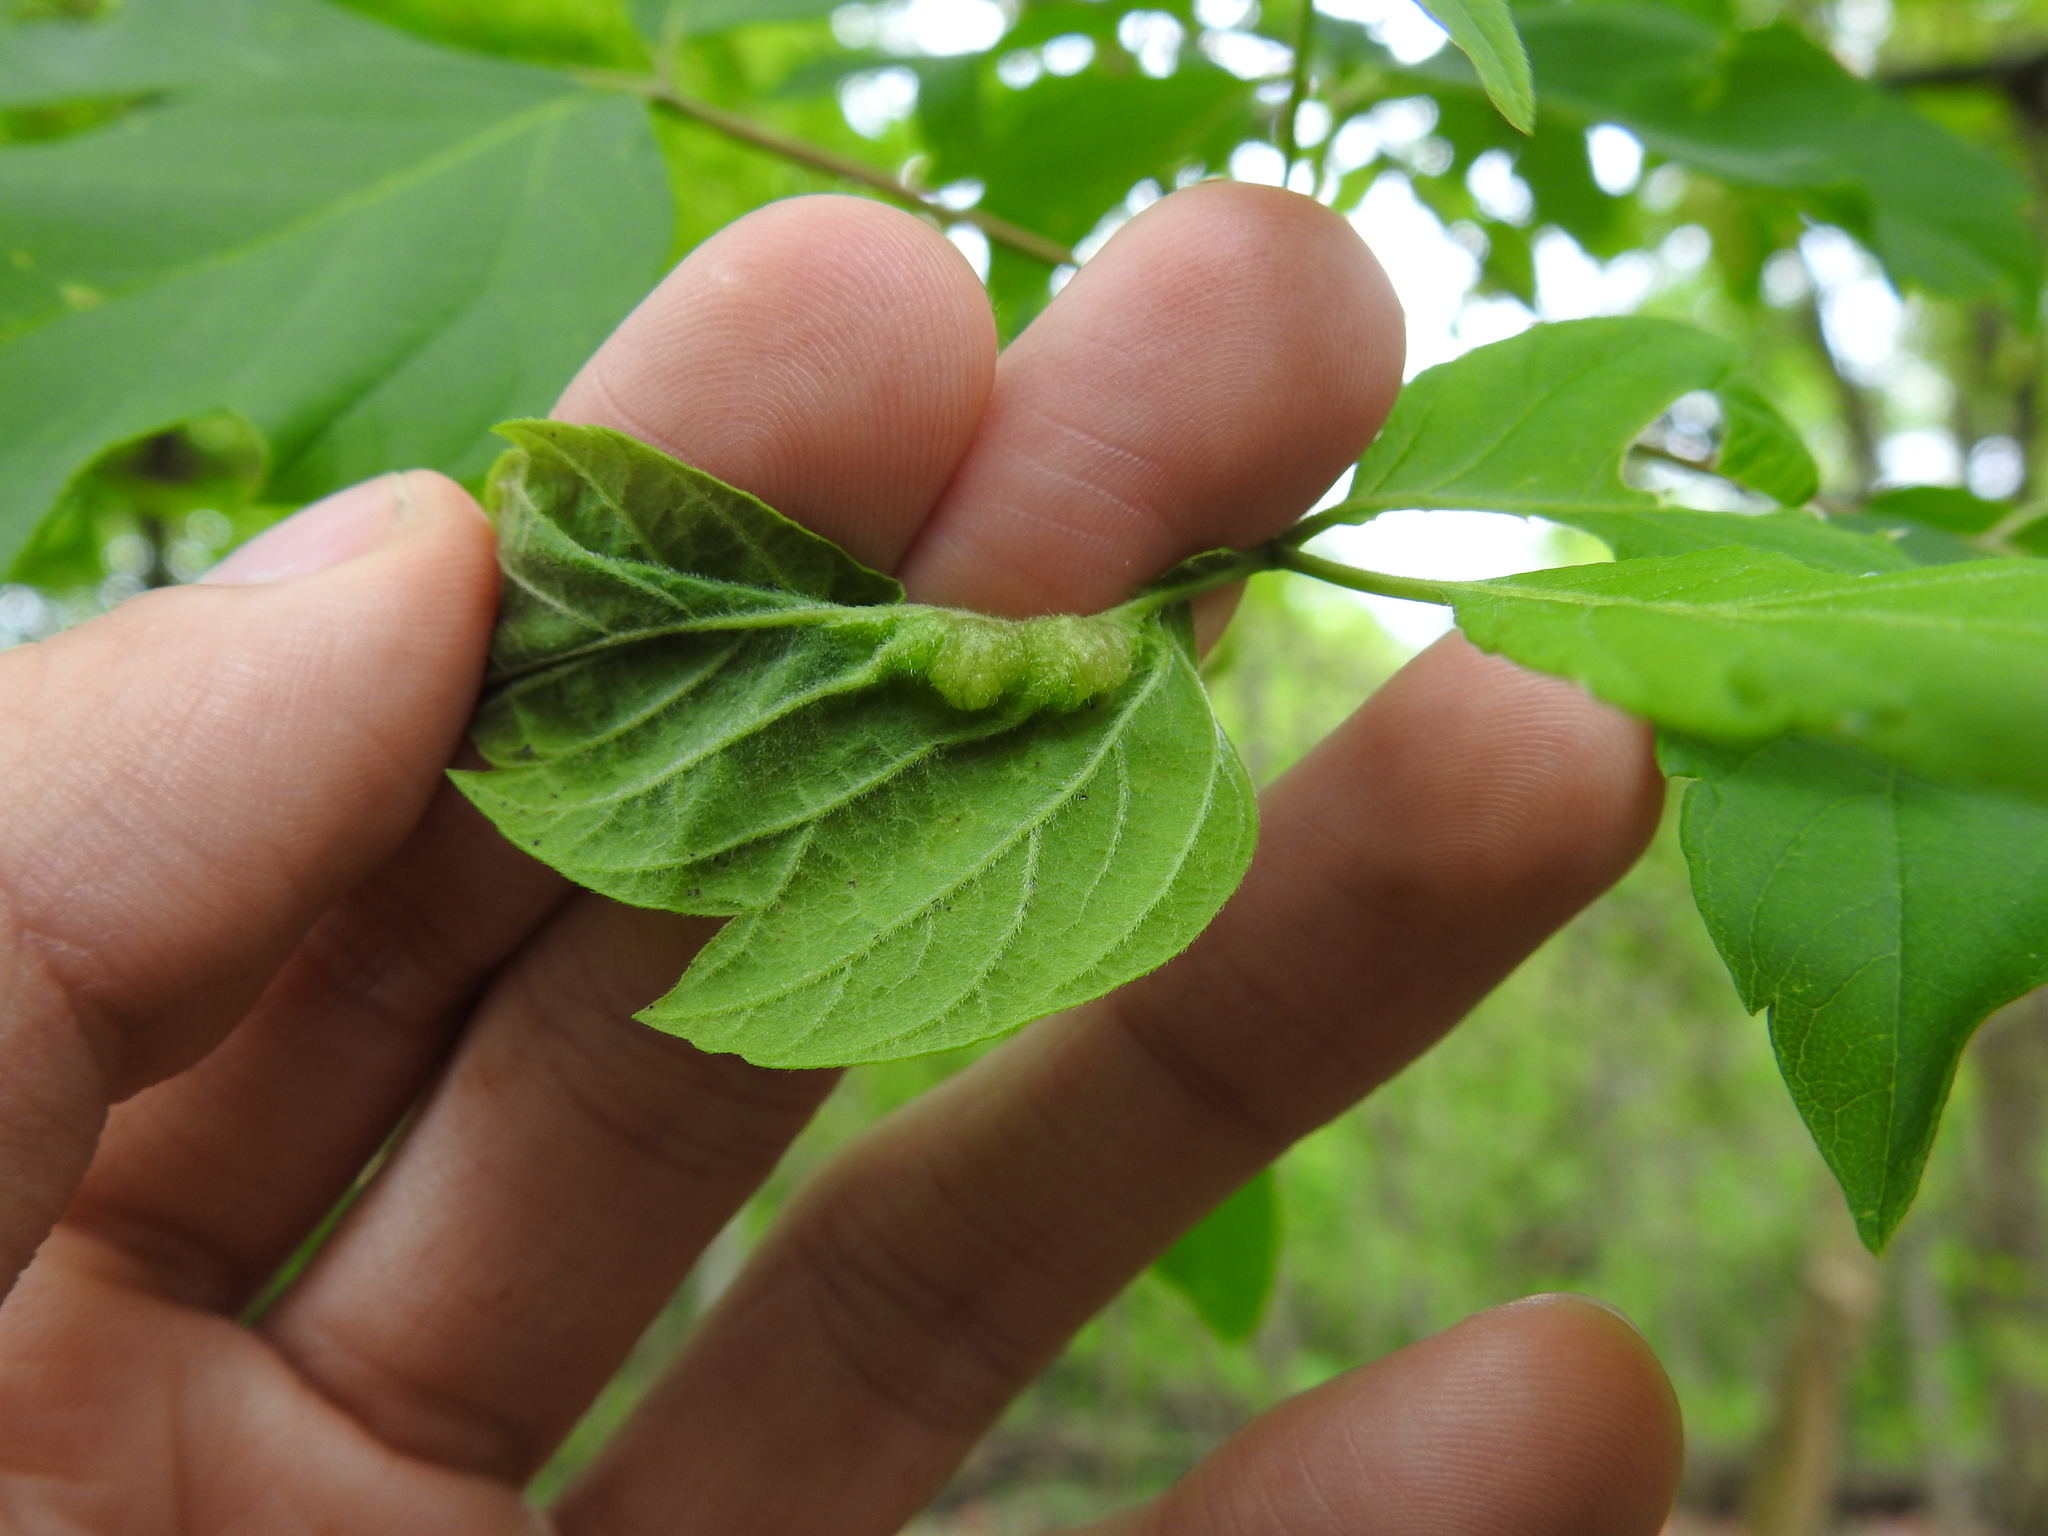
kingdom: Animalia
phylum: Arthropoda
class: Insecta
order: Diptera
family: Cecidomyiidae
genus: Contarinia
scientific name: Contarinia negundinis
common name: Boxelder budgall midge
